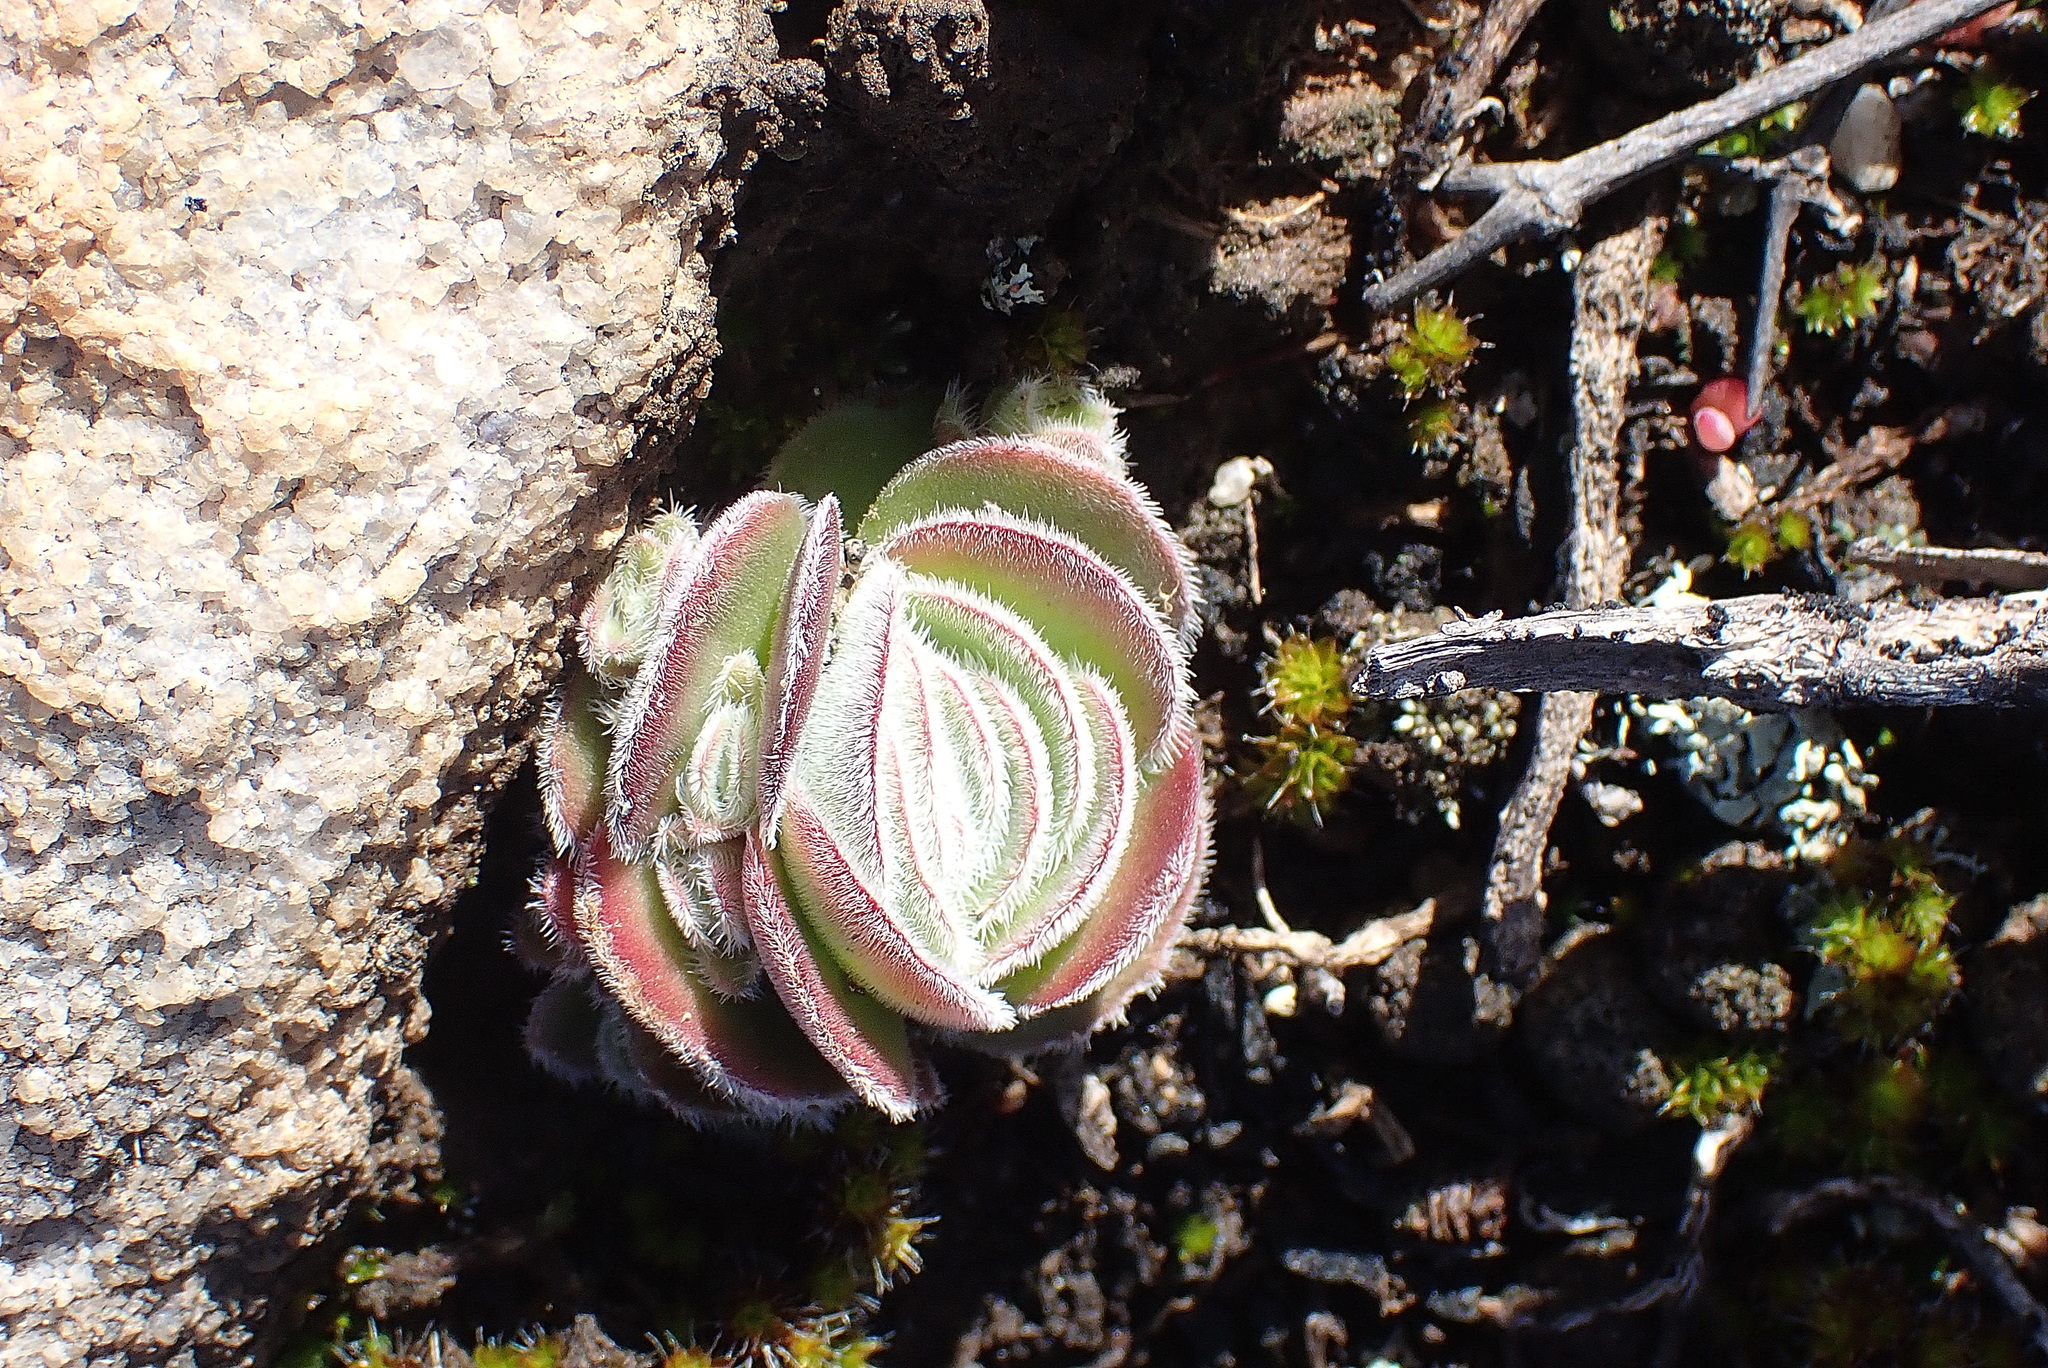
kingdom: Plantae
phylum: Tracheophyta
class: Magnoliopsida
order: Saxifragales
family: Crassulaceae
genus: Crassula
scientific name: Crassula tomentosa
